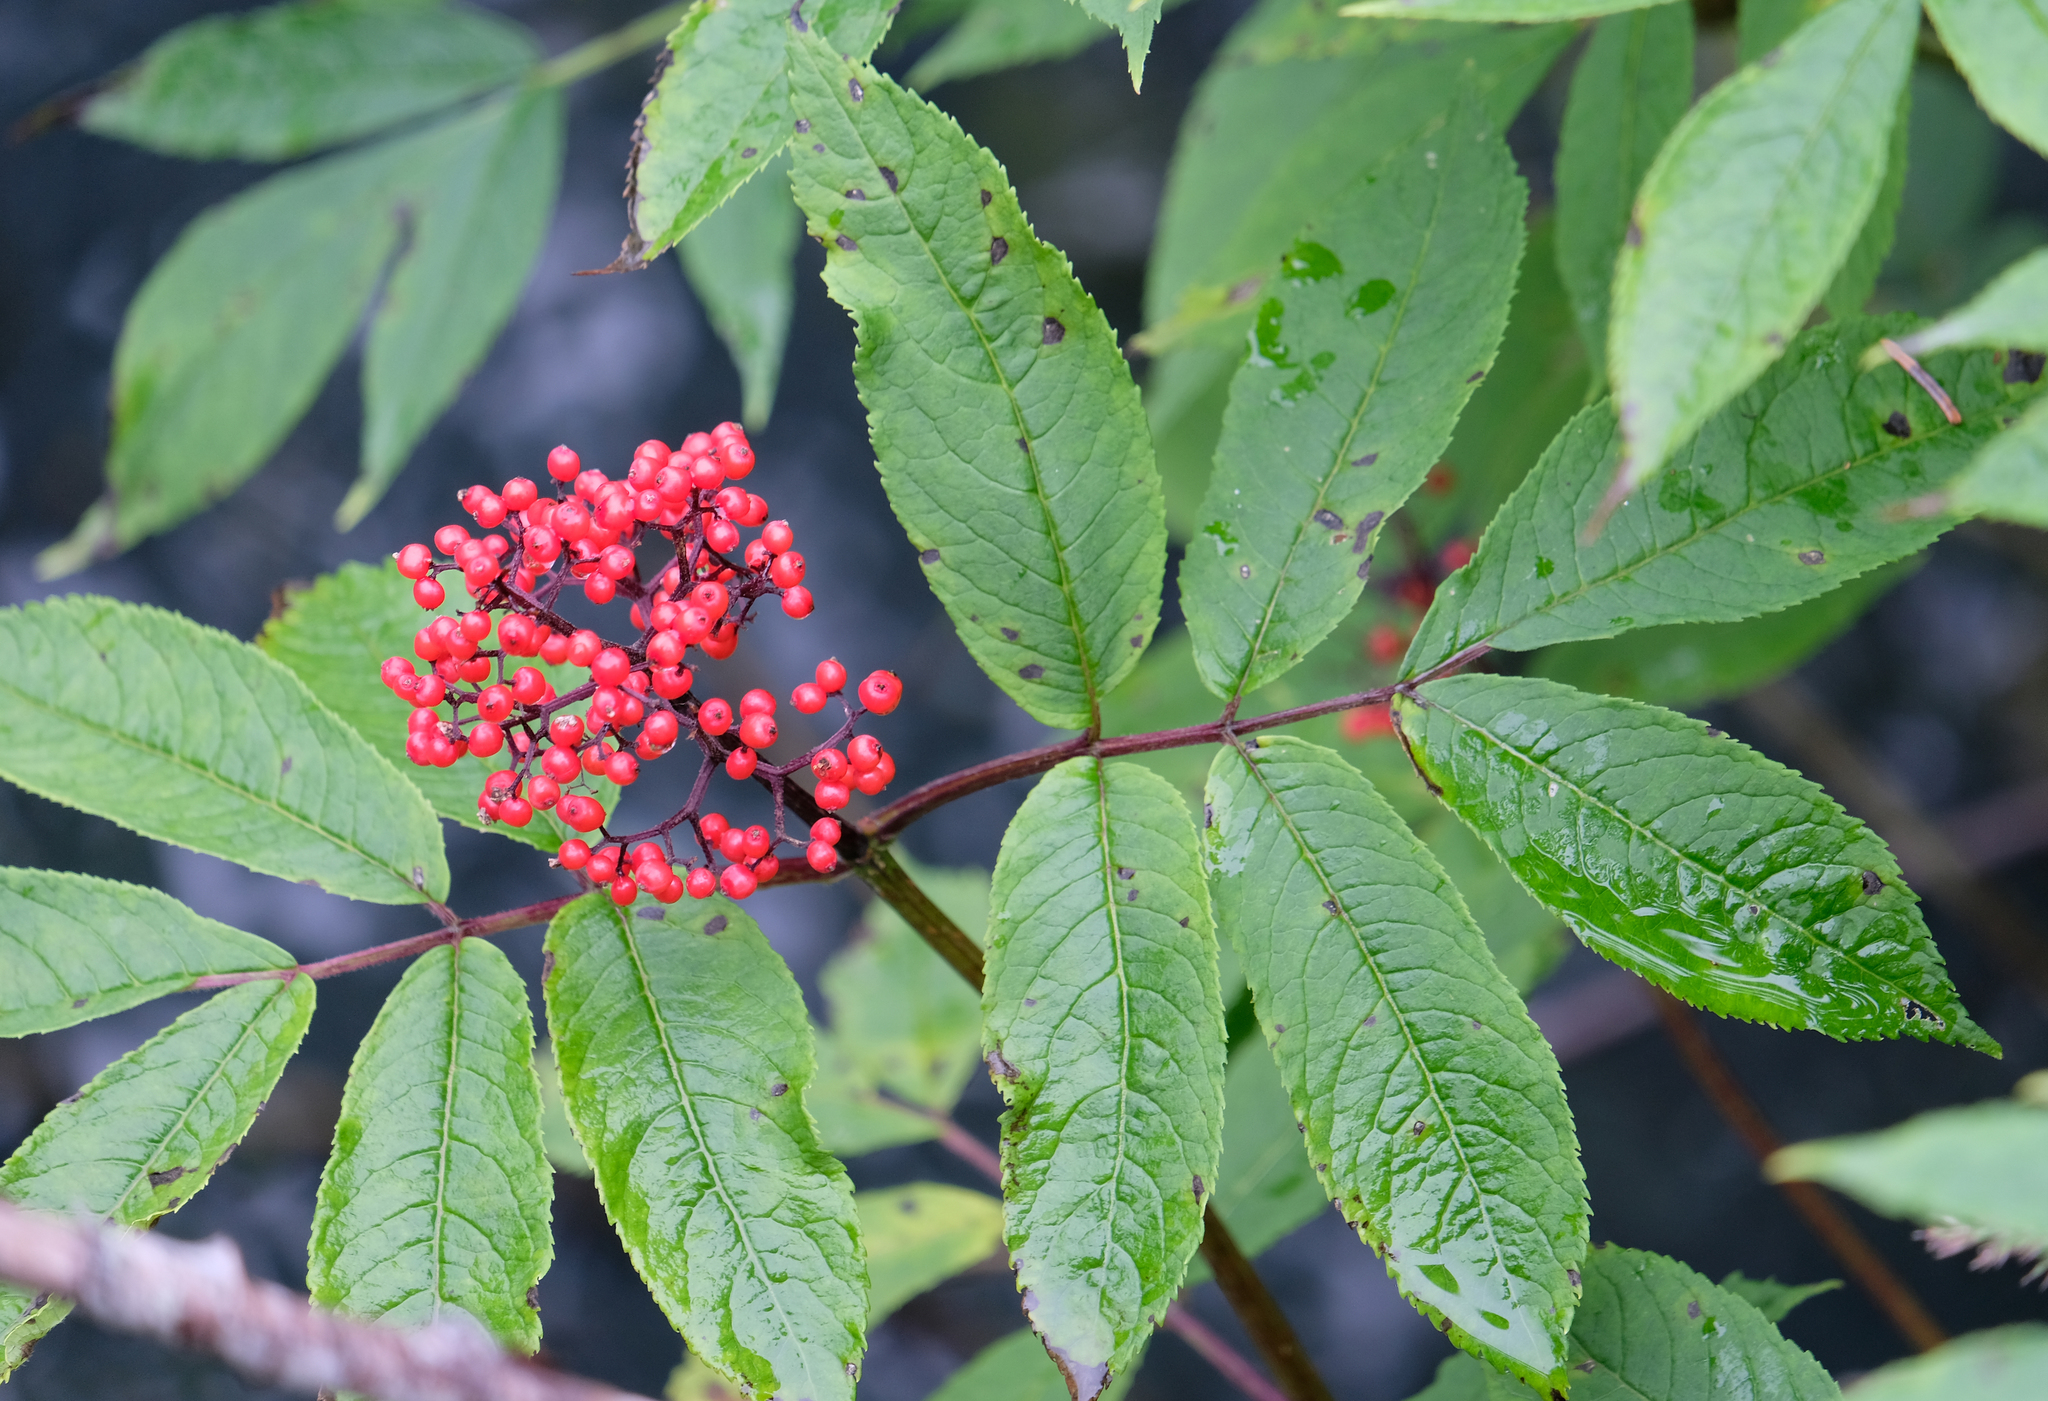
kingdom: Plantae
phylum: Tracheophyta
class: Magnoliopsida
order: Dipsacales
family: Viburnaceae
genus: Sambucus
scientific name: Sambucus racemosa
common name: Red-berried elder
